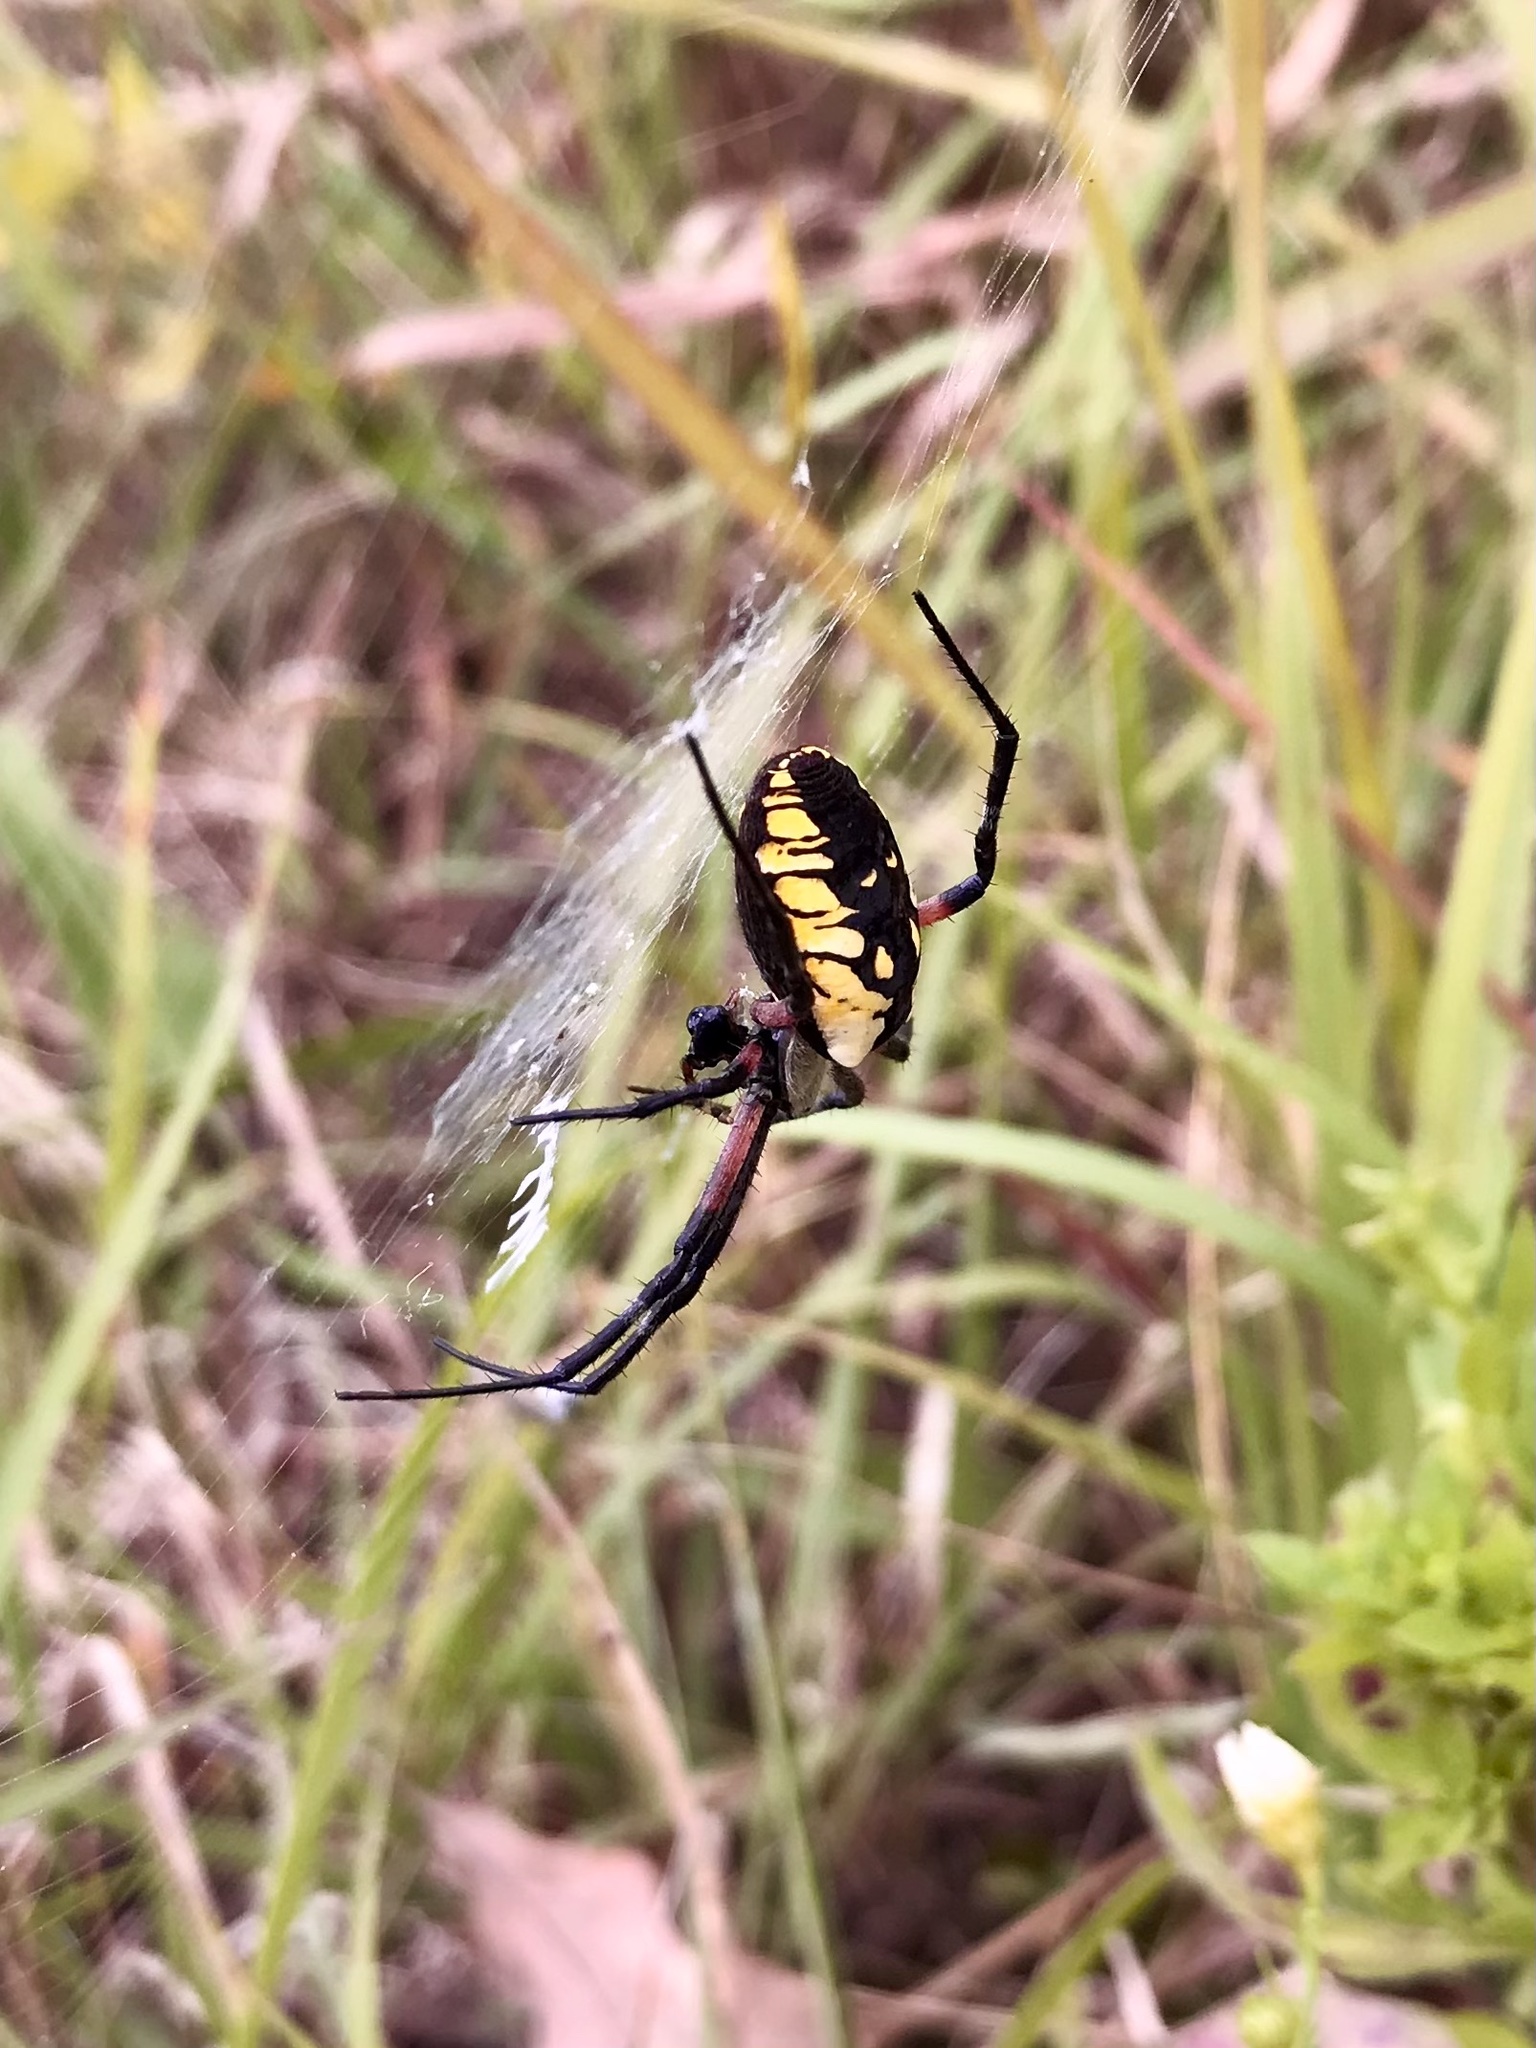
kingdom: Animalia
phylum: Arthropoda
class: Arachnida
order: Araneae
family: Araneidae
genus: Argiope
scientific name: Argiope aurantia
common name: Orb weavers
